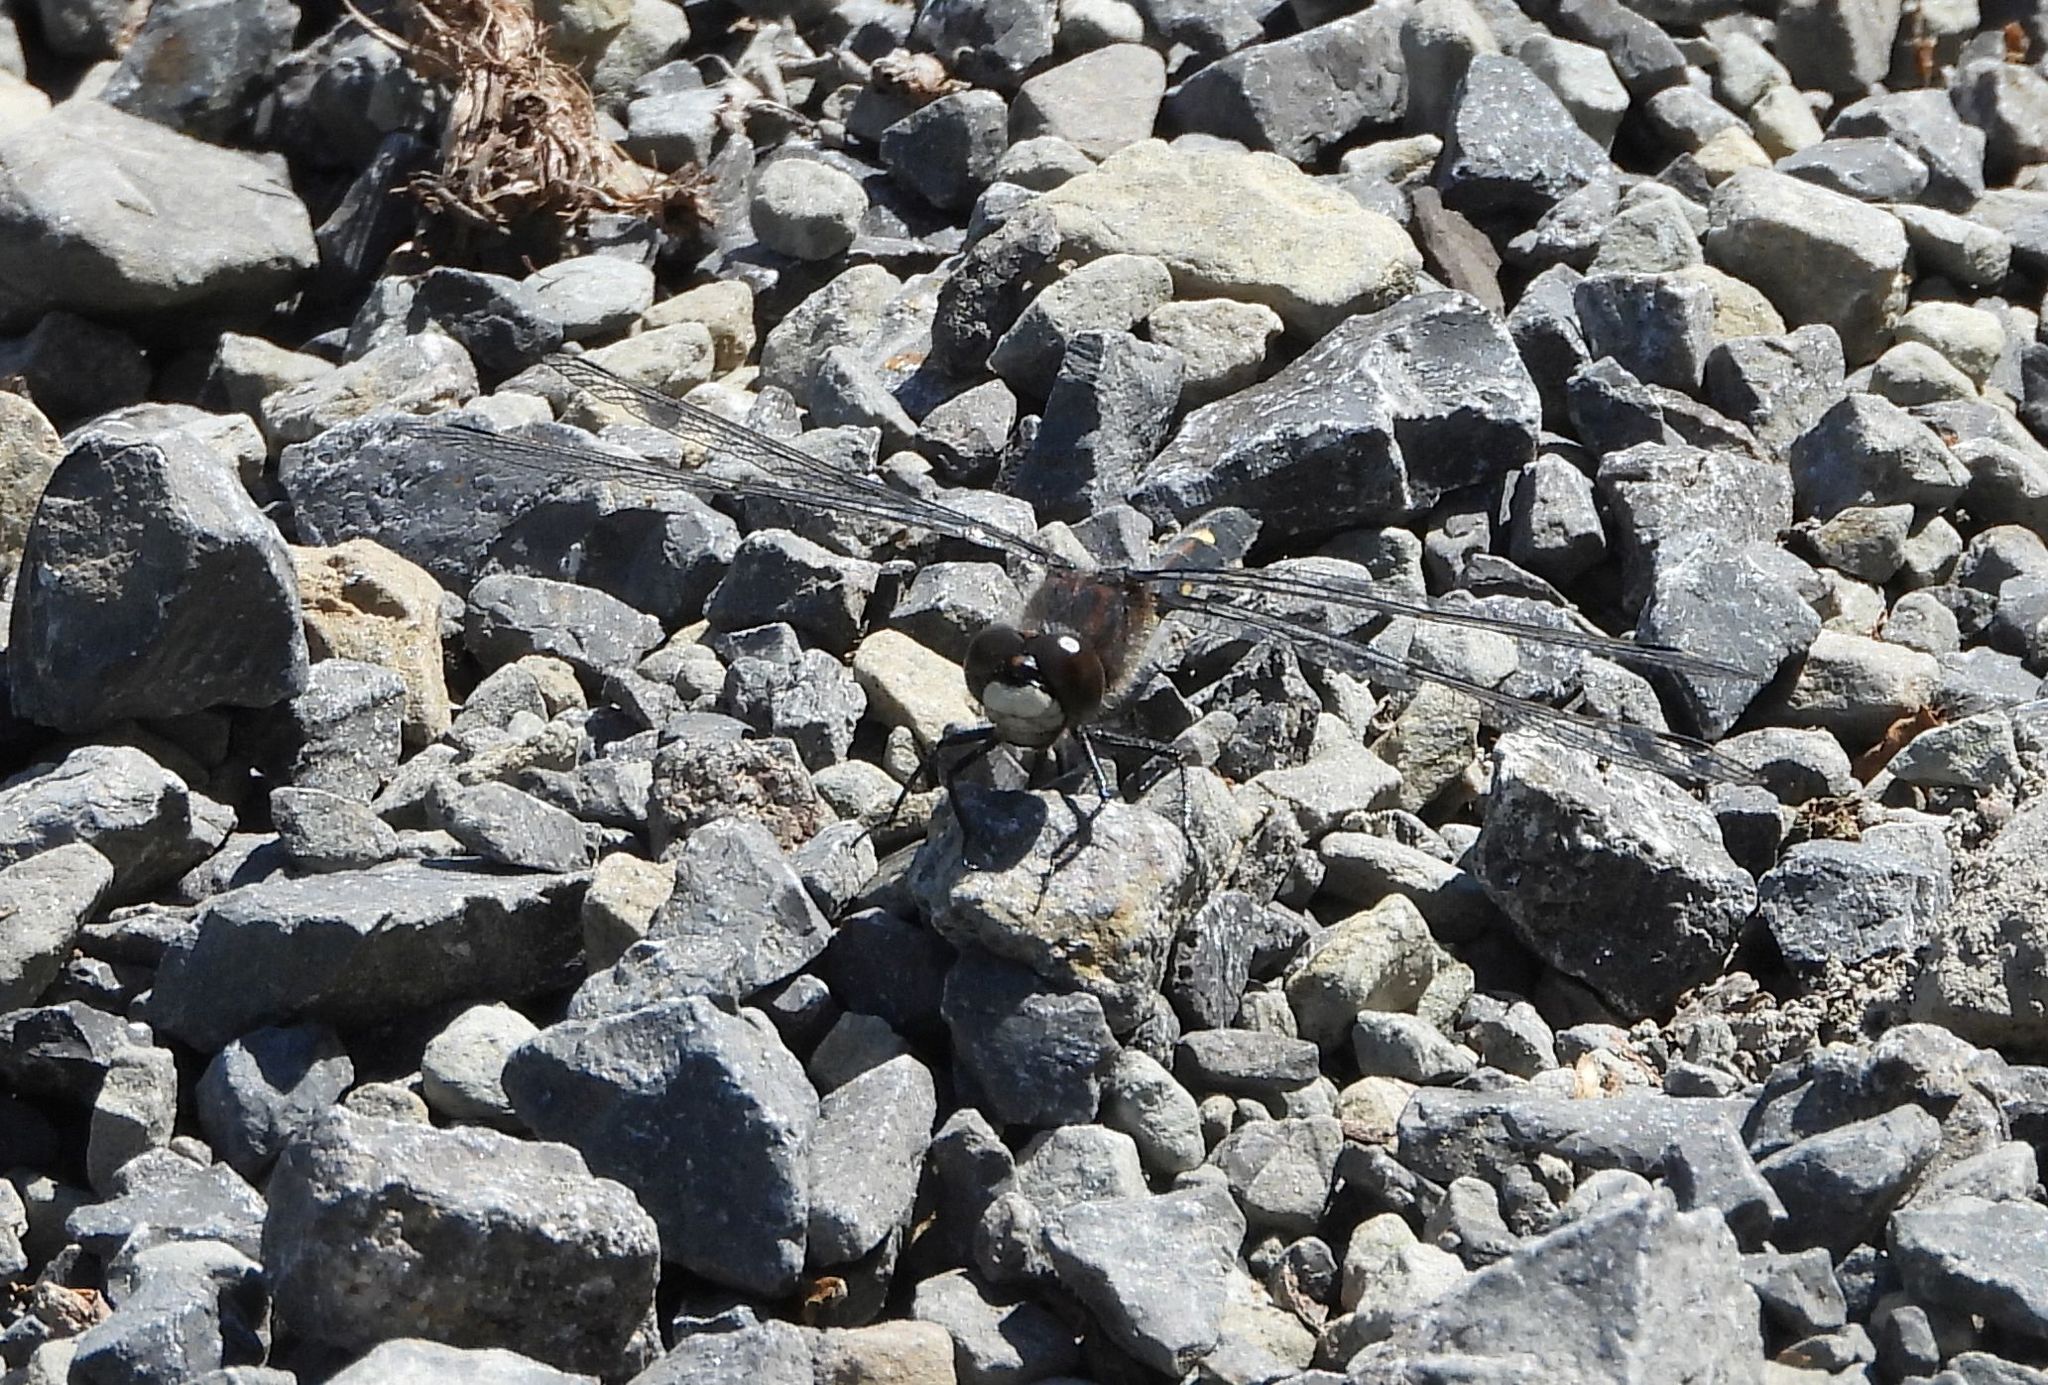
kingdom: Animalia
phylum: Arthropoda
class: Insecta
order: Odonata
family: Libellulidae
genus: Leucorrhinia
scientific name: Leucorrhinia intacta
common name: Dot-tailed whiteface
